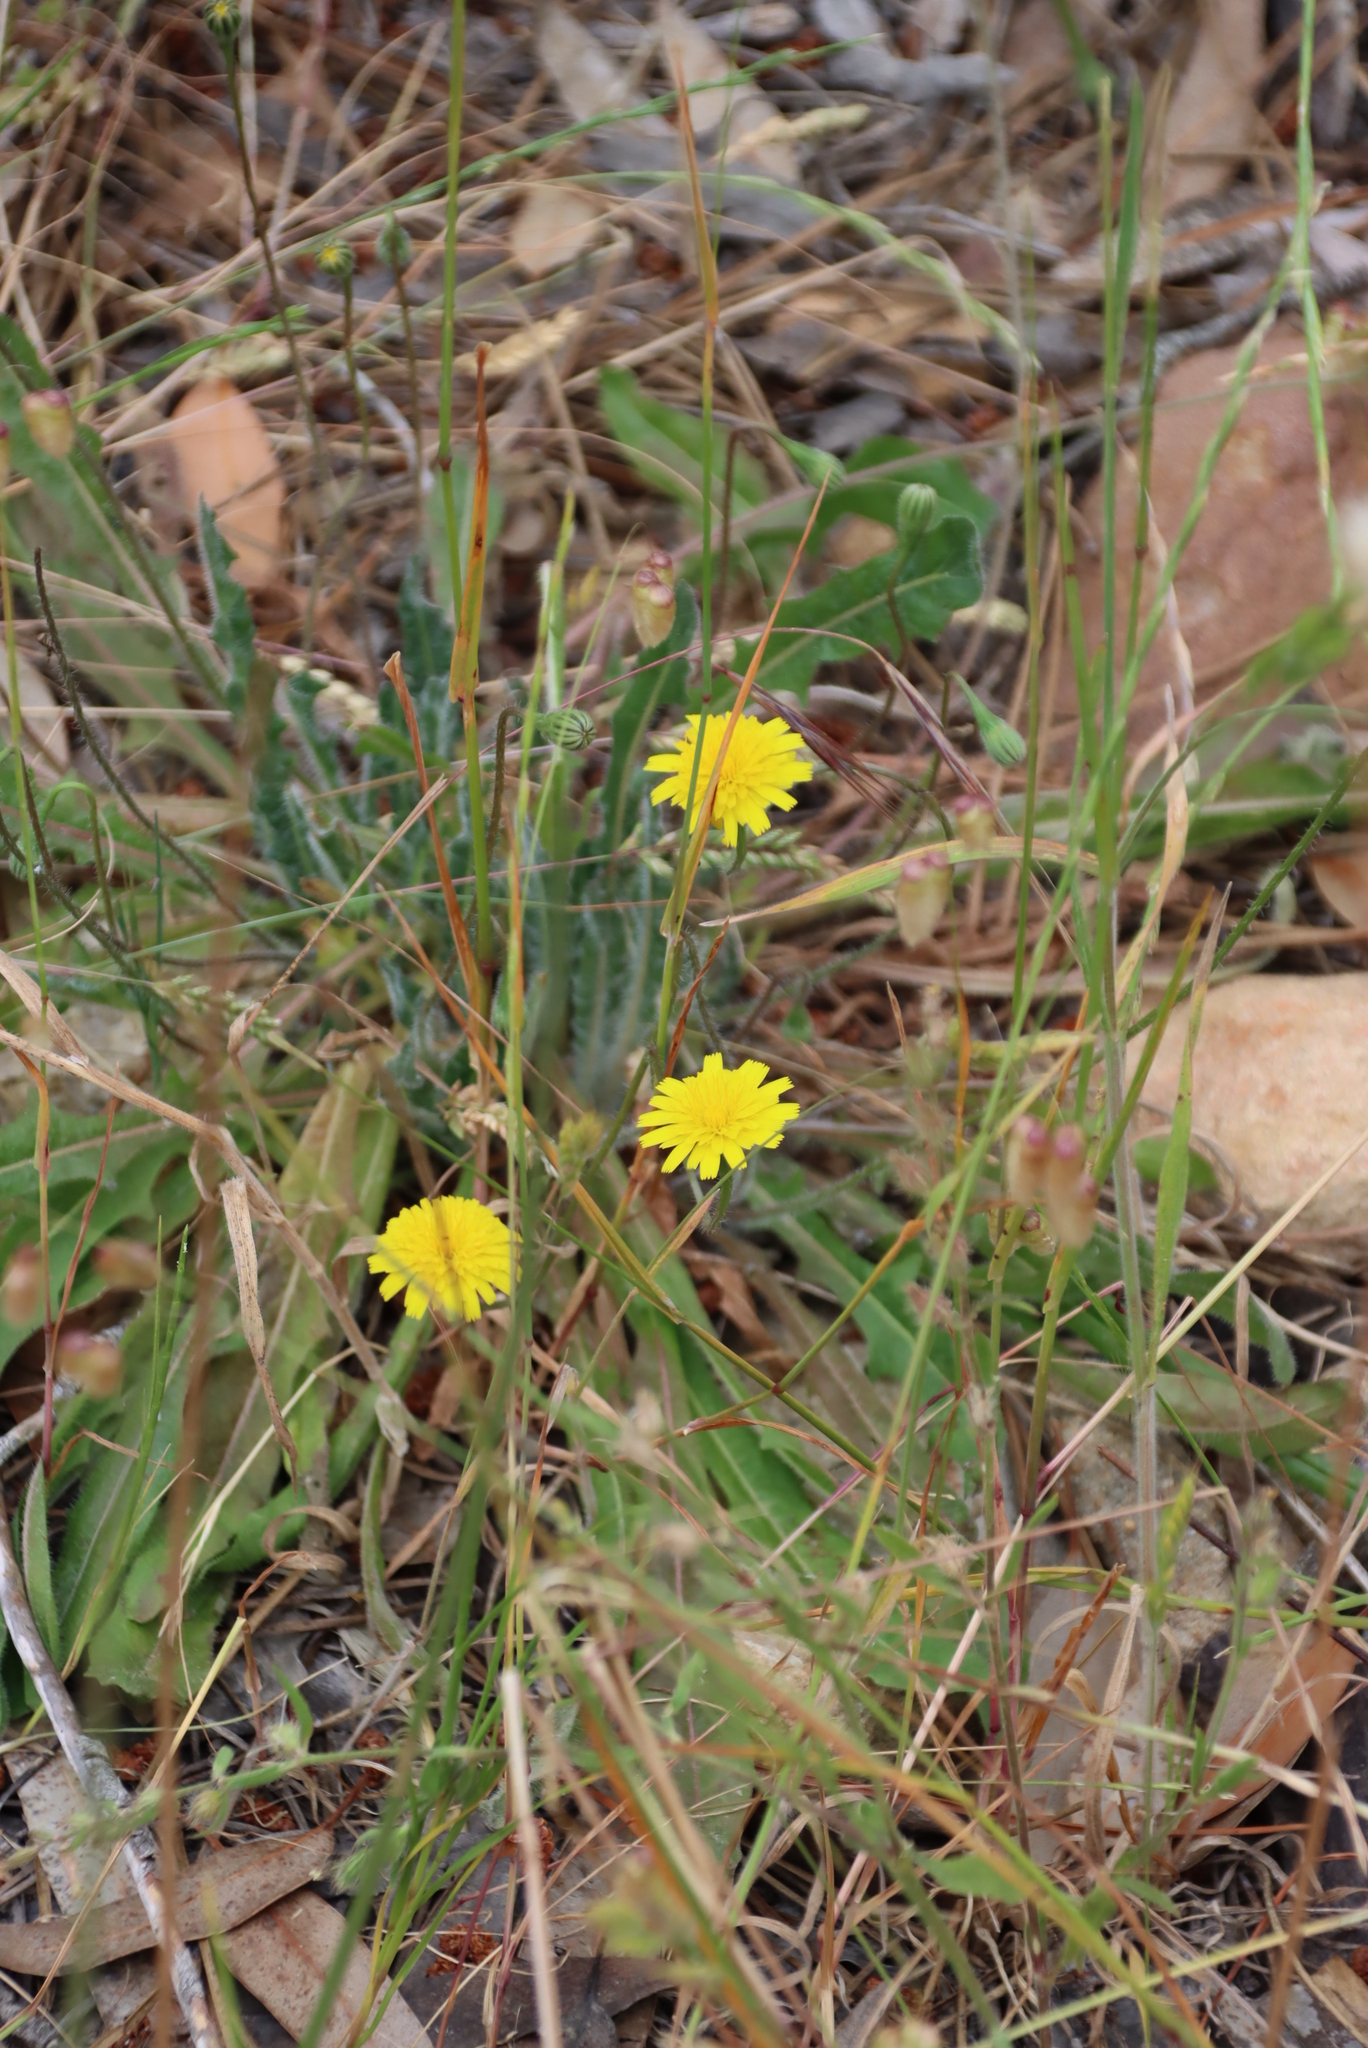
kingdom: Plantae
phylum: Tracheophyta
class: Magnoliopsida
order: Asterales
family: Asteraceae
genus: Hypochaeris
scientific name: Hypochaeris radicata
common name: Flatweed
